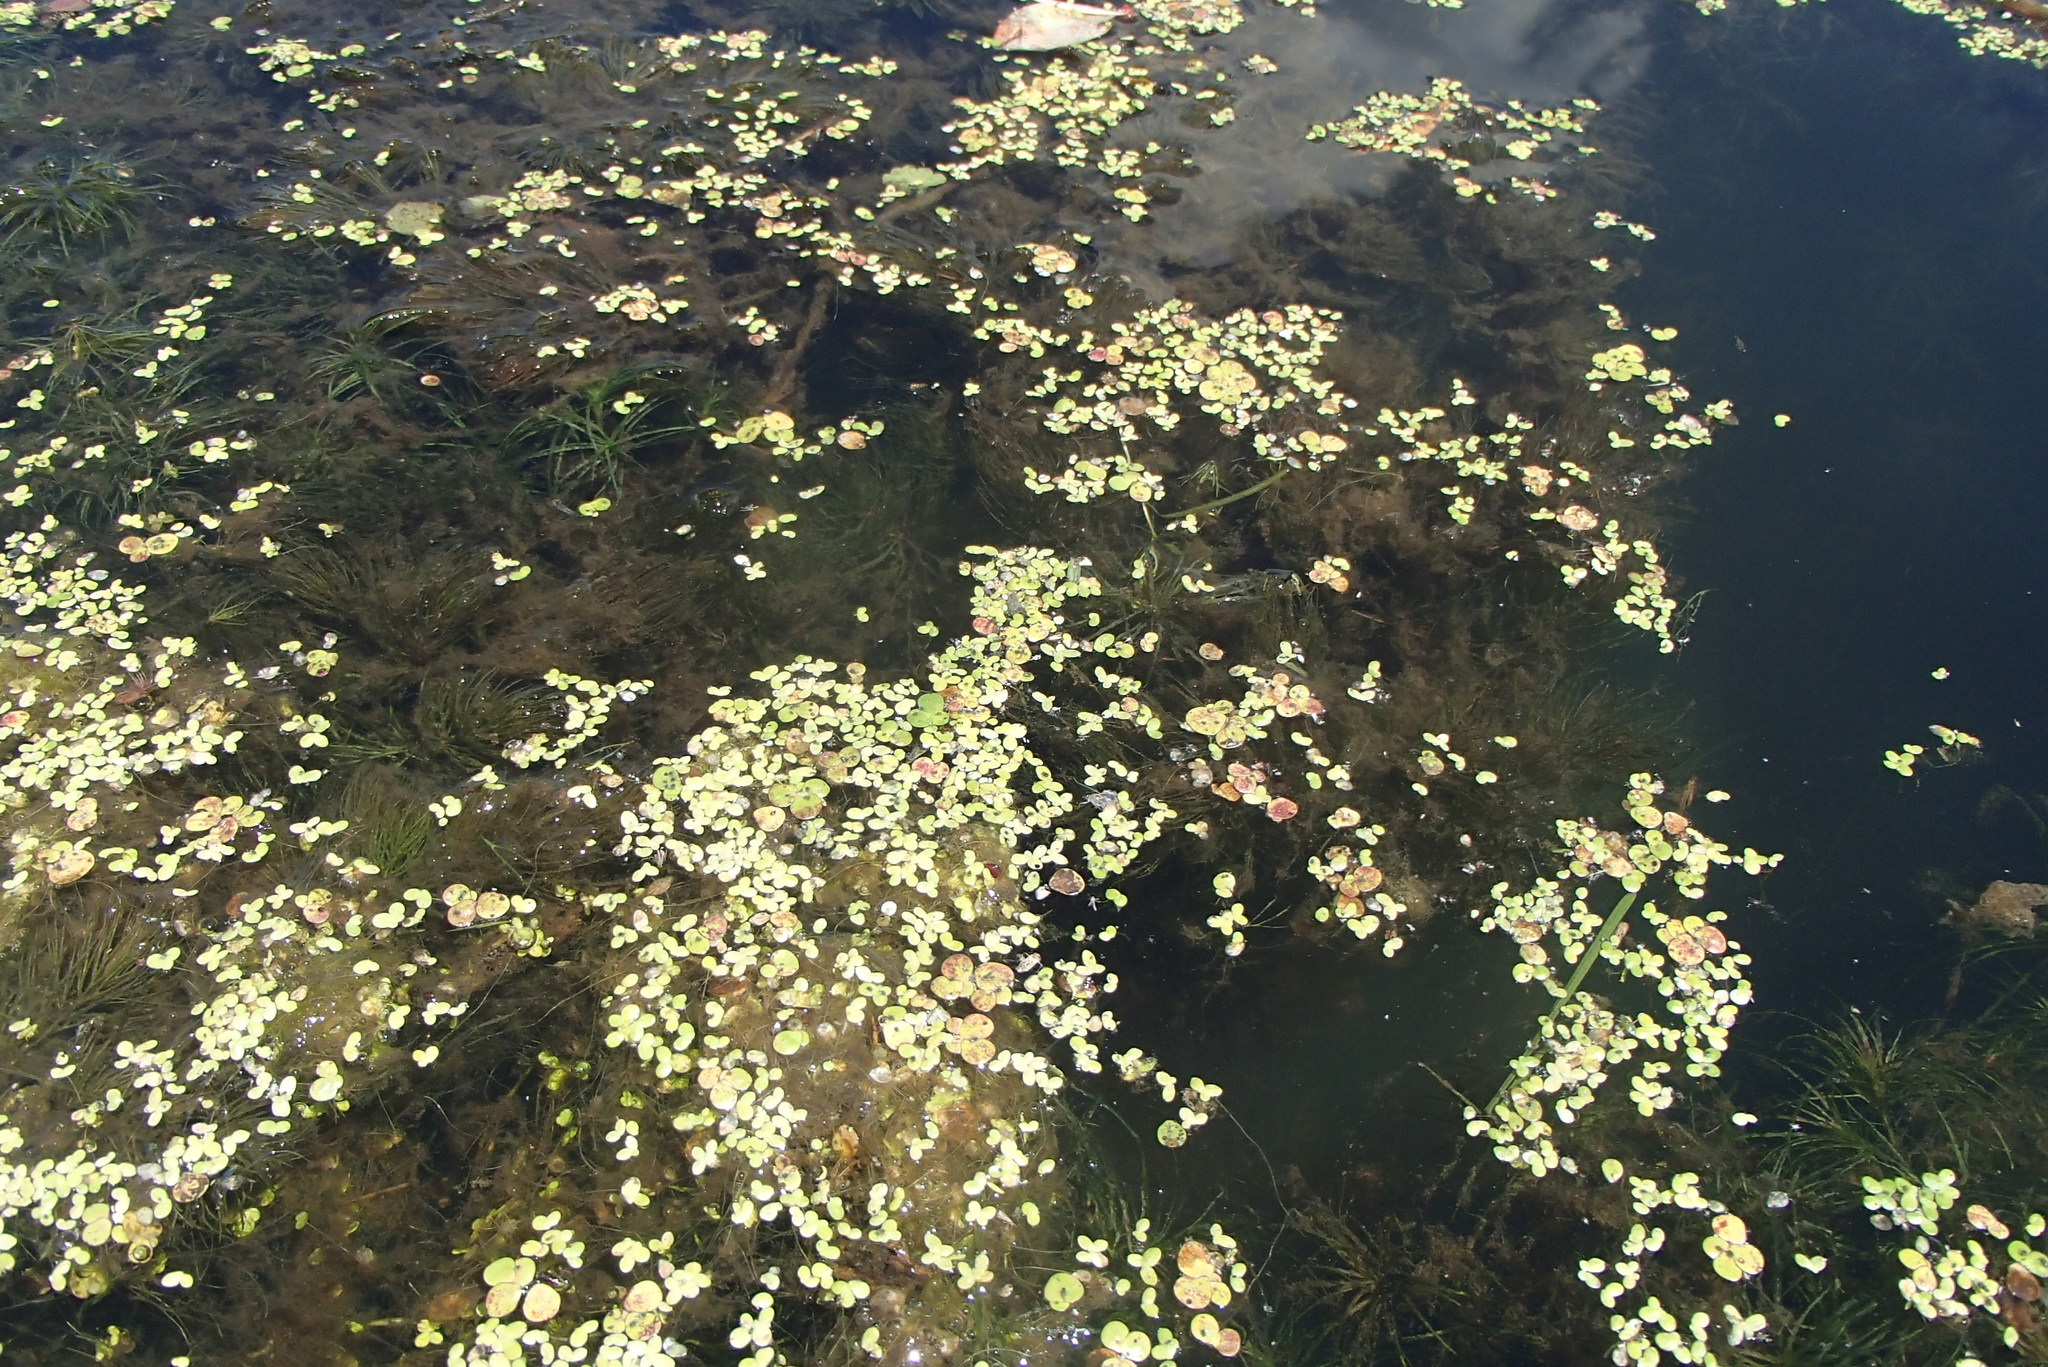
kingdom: Plantae
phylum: Tracheophyta
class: Liliopsida
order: Alismatales
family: Araceae
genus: Spirodela
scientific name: Spirodela polyrhiza
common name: Great duckweed
